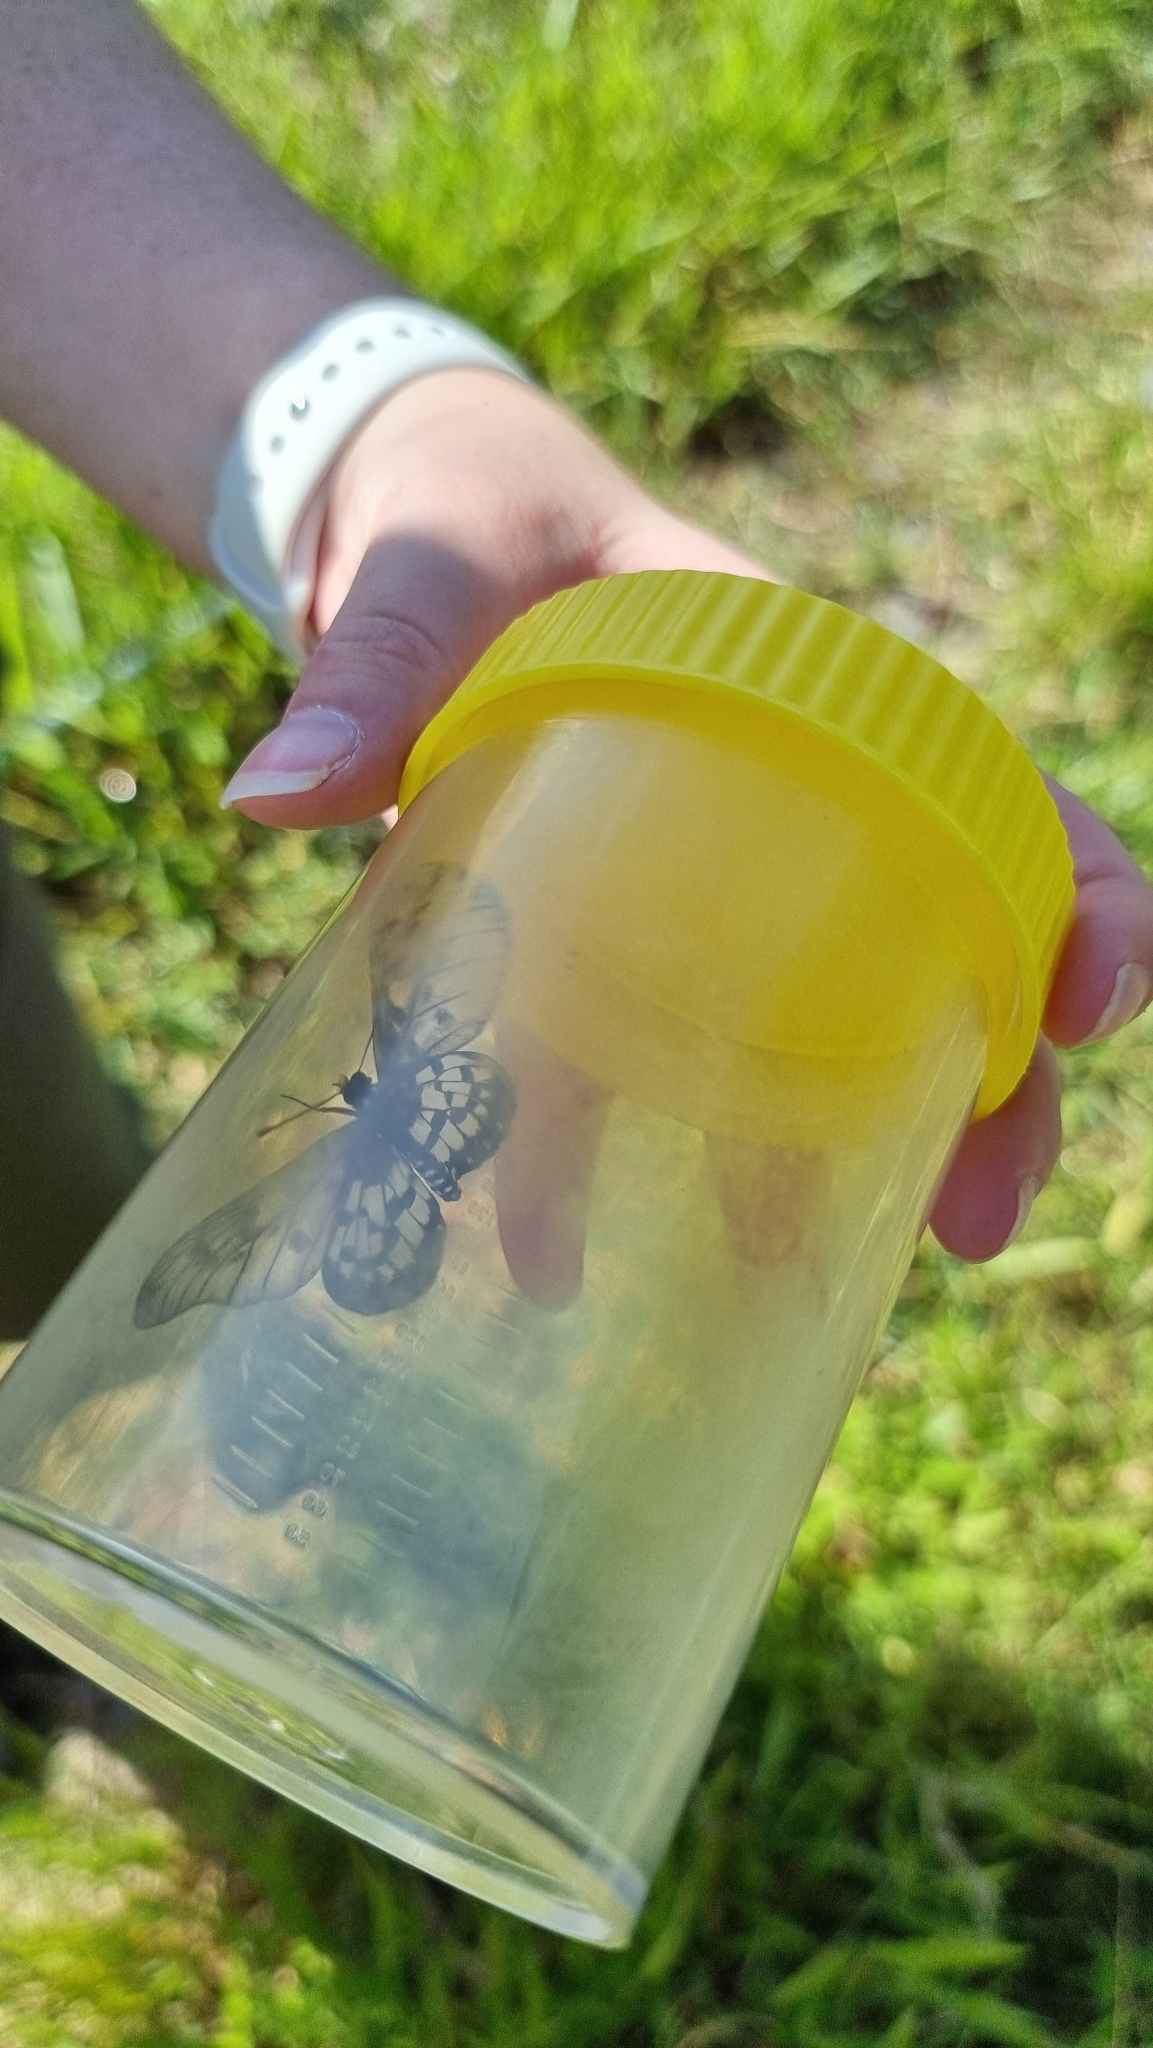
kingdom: Animalia
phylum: Arthropoda
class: Insecta
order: Lepidoptera
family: Nymphalidae
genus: Acraea
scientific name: Acraea andromacha
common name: Glasswing
